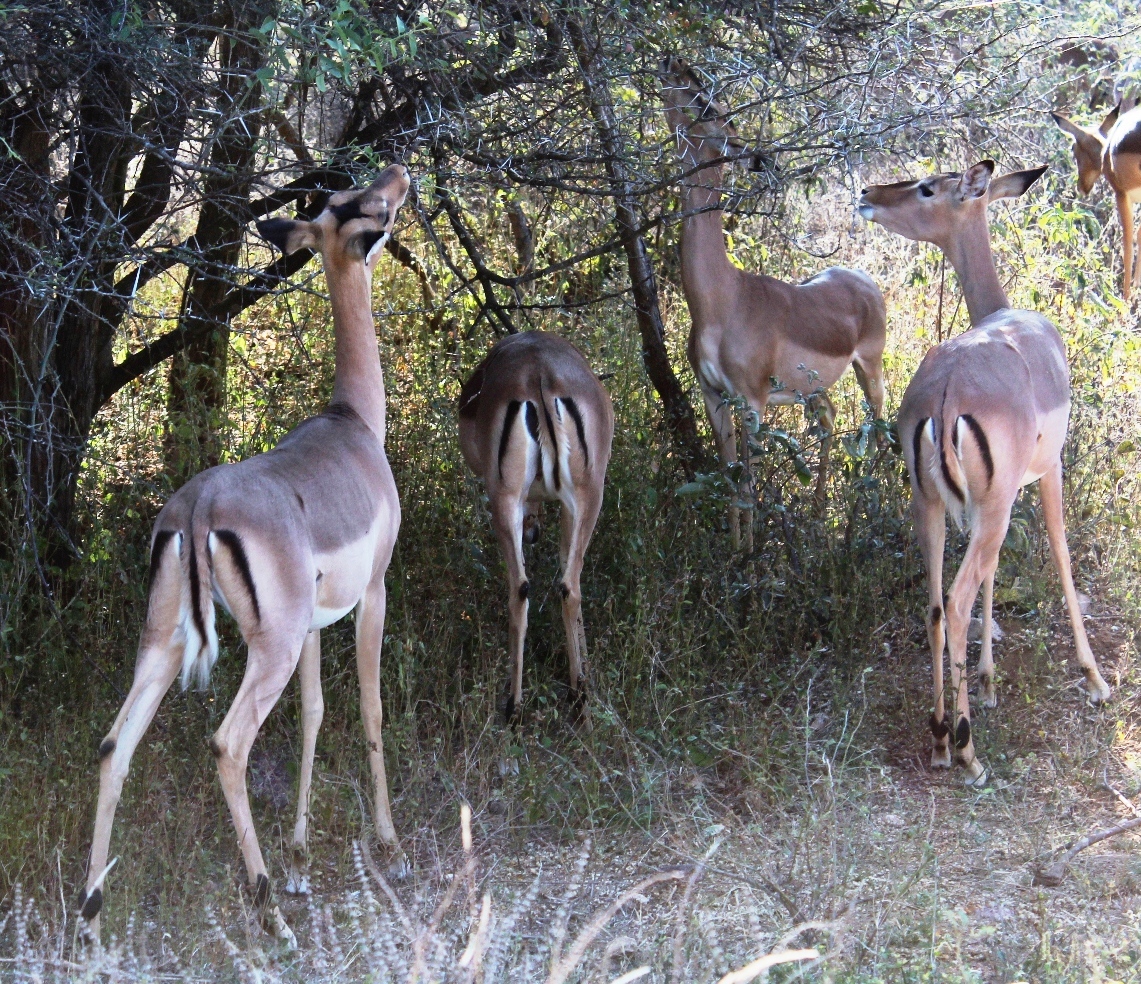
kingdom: Animalia
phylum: Chordata
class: Mammalia
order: Artiodactyla
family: Bovidae
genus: Aepyceros
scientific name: Aepyceros melampus
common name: Impala
